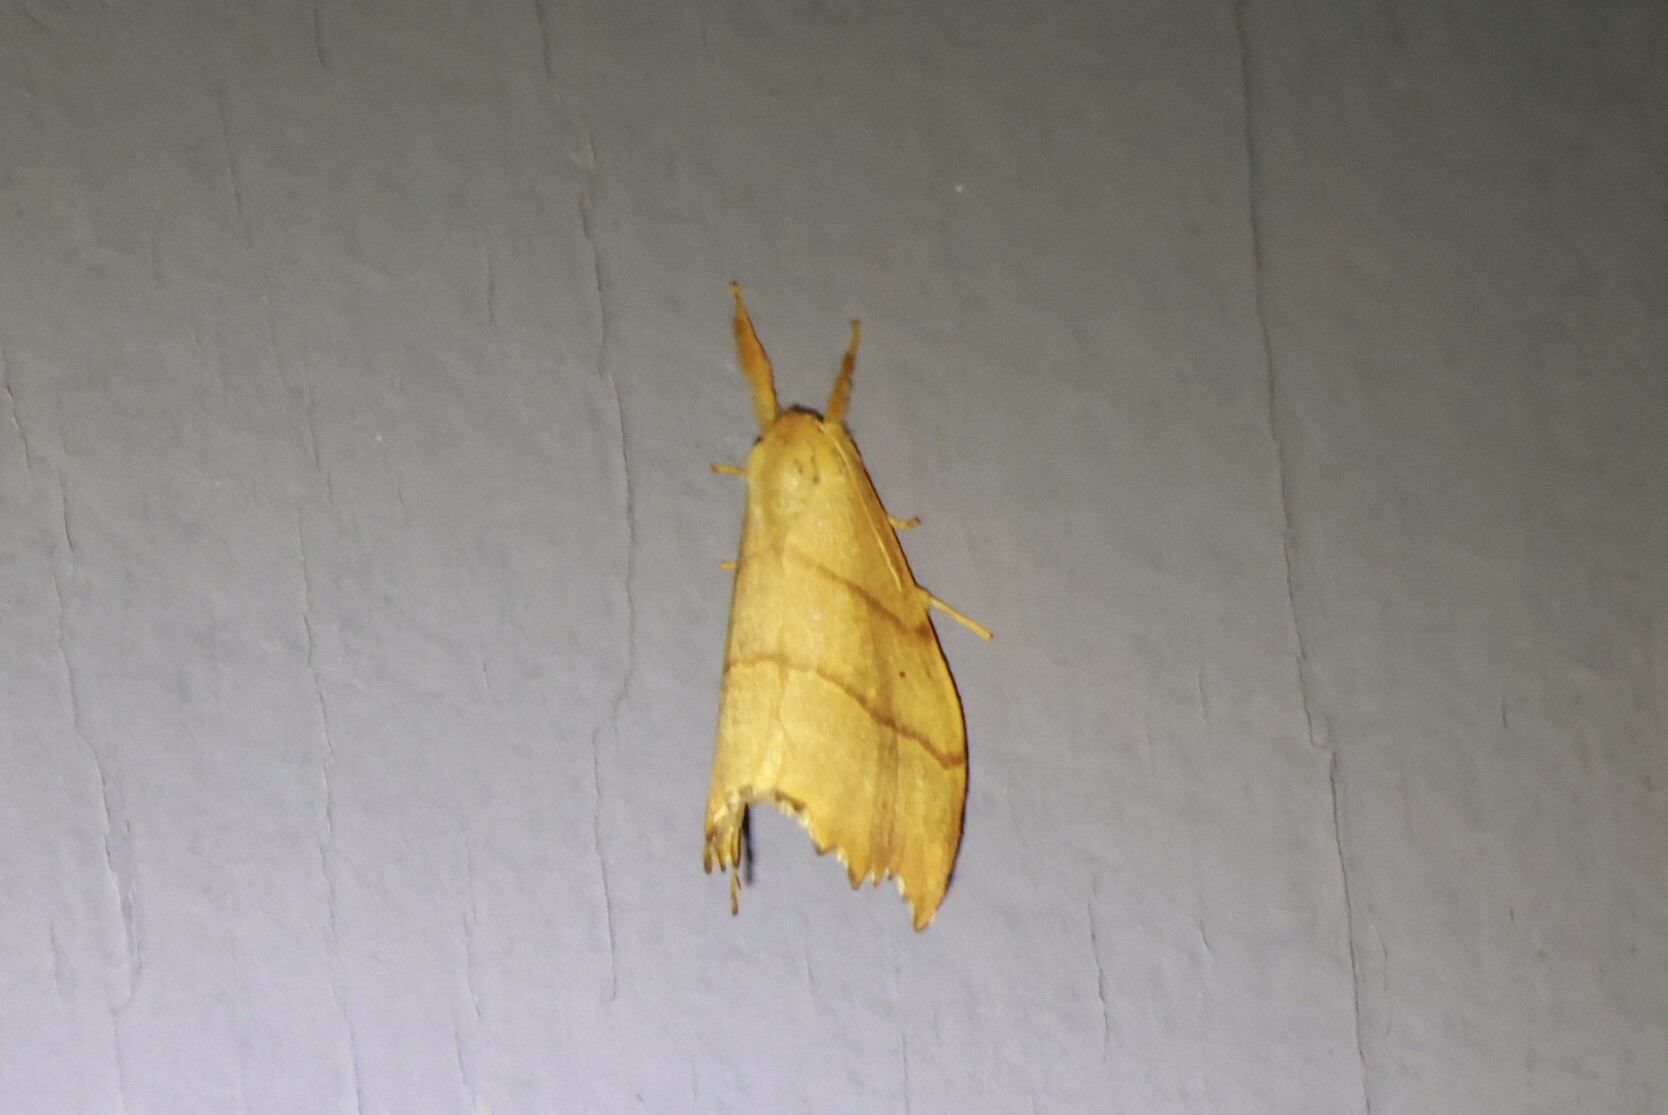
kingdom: Animalia
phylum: Arthropoda
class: Insecta
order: Lepidoptera
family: Drepanidae
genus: Falcaria
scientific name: Falcaria bilineata
